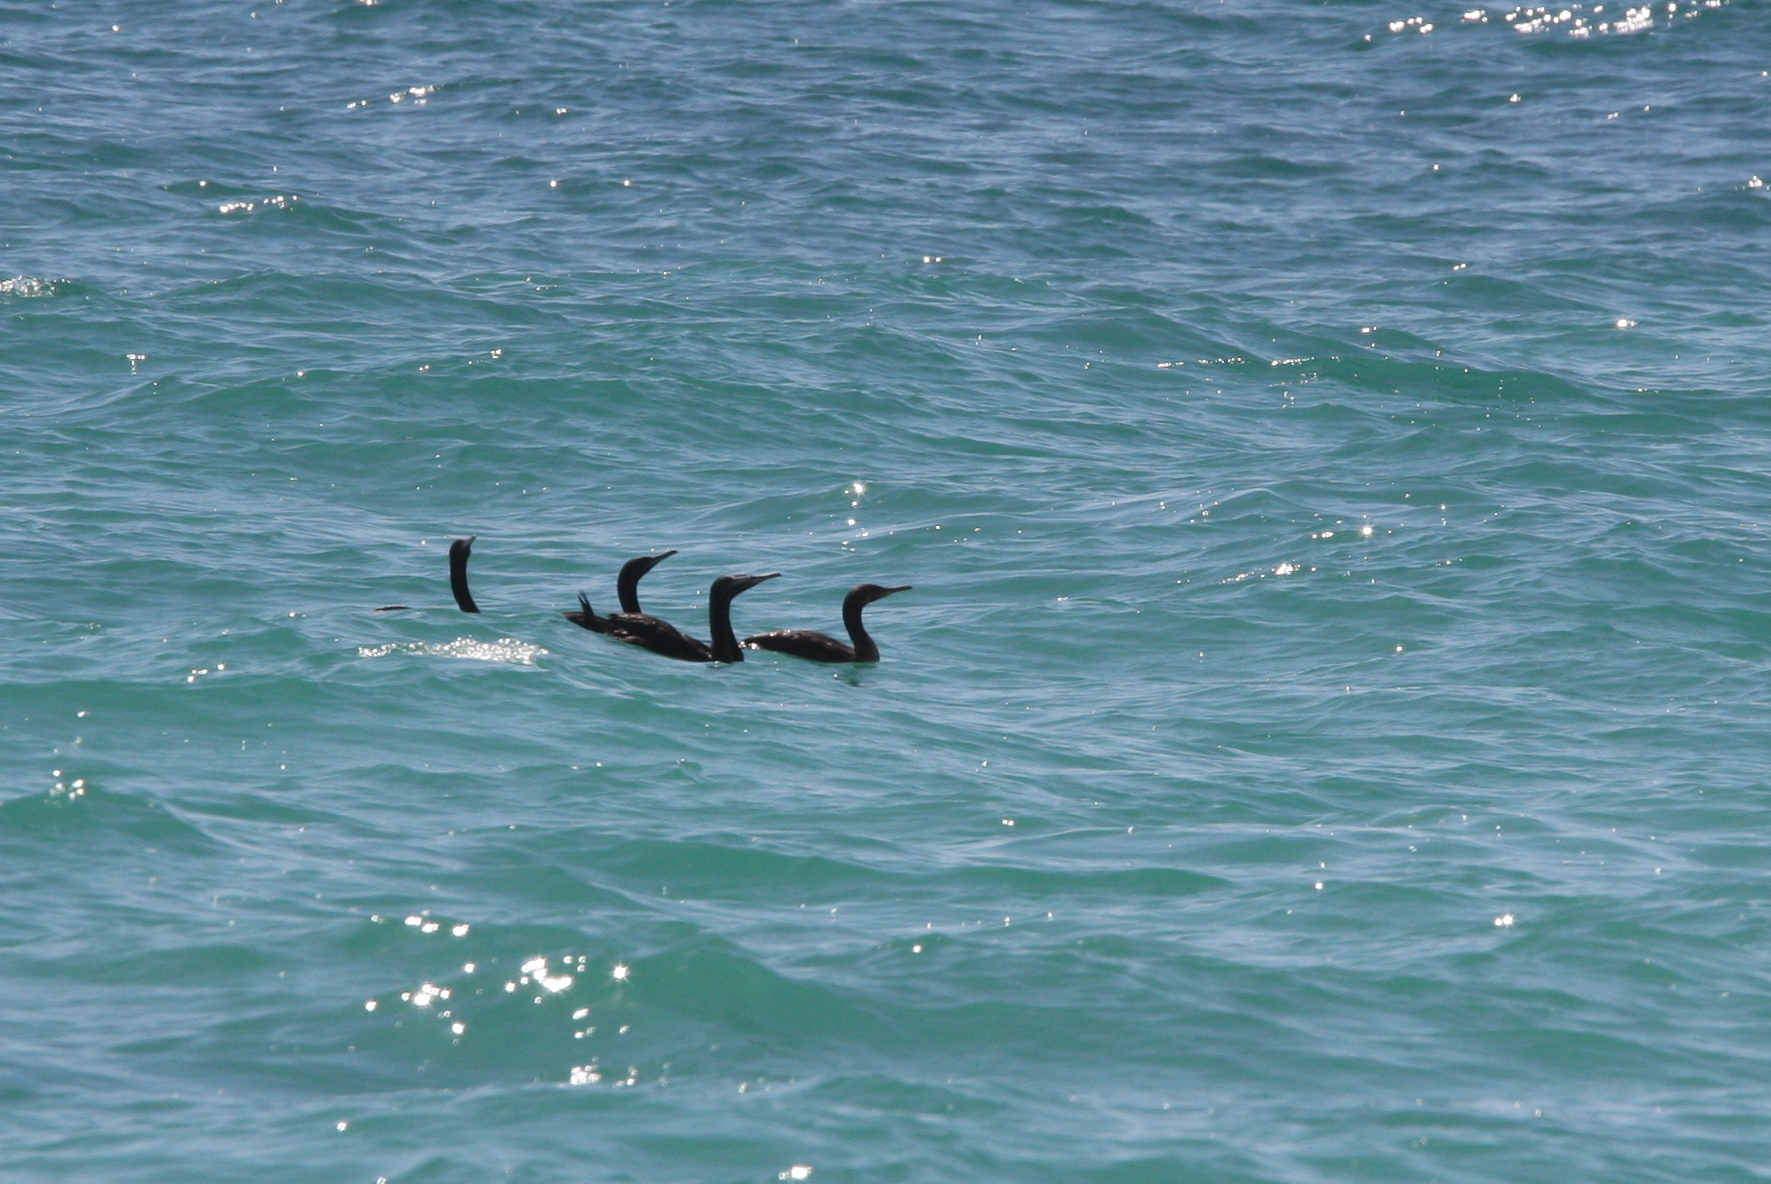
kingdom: Animalia
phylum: Chordata
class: Aves
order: Suliformes
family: Phalacrocoracidae
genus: Phalacrocorax
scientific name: Phalacrocorax nigrogularis
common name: Socotra cormorant
